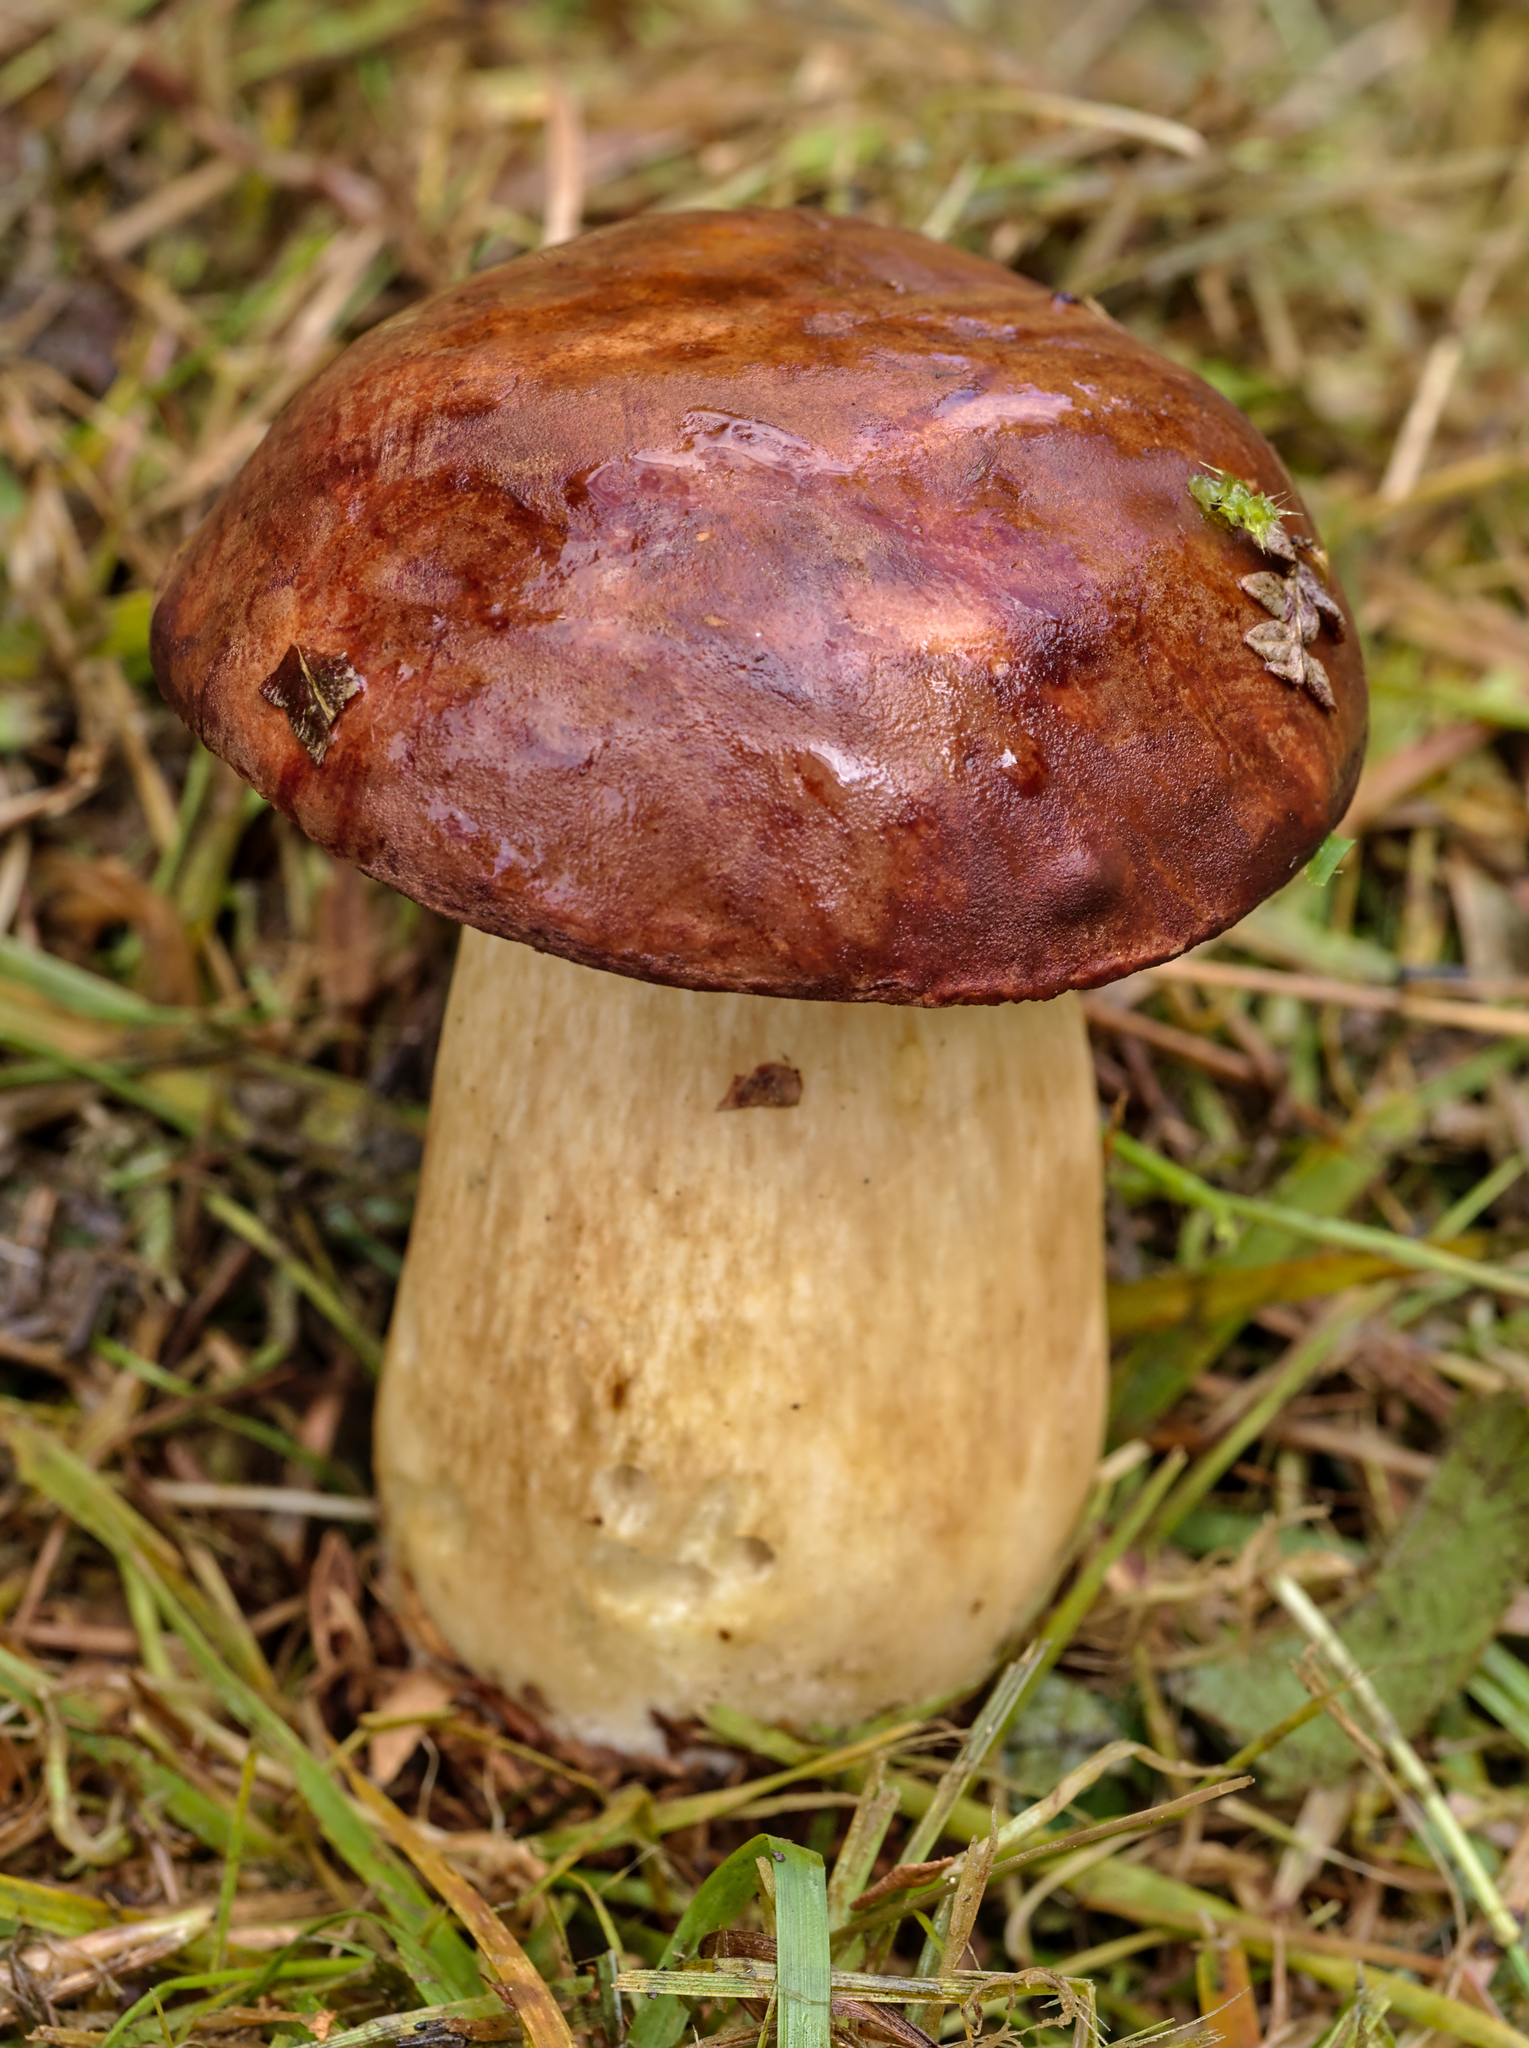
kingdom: Fungi
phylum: Basidiomycota
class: Agaricomycetes
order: Boletales
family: Boletaceae
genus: Boletus
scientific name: Boletus pinophilus
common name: Pine bolete
